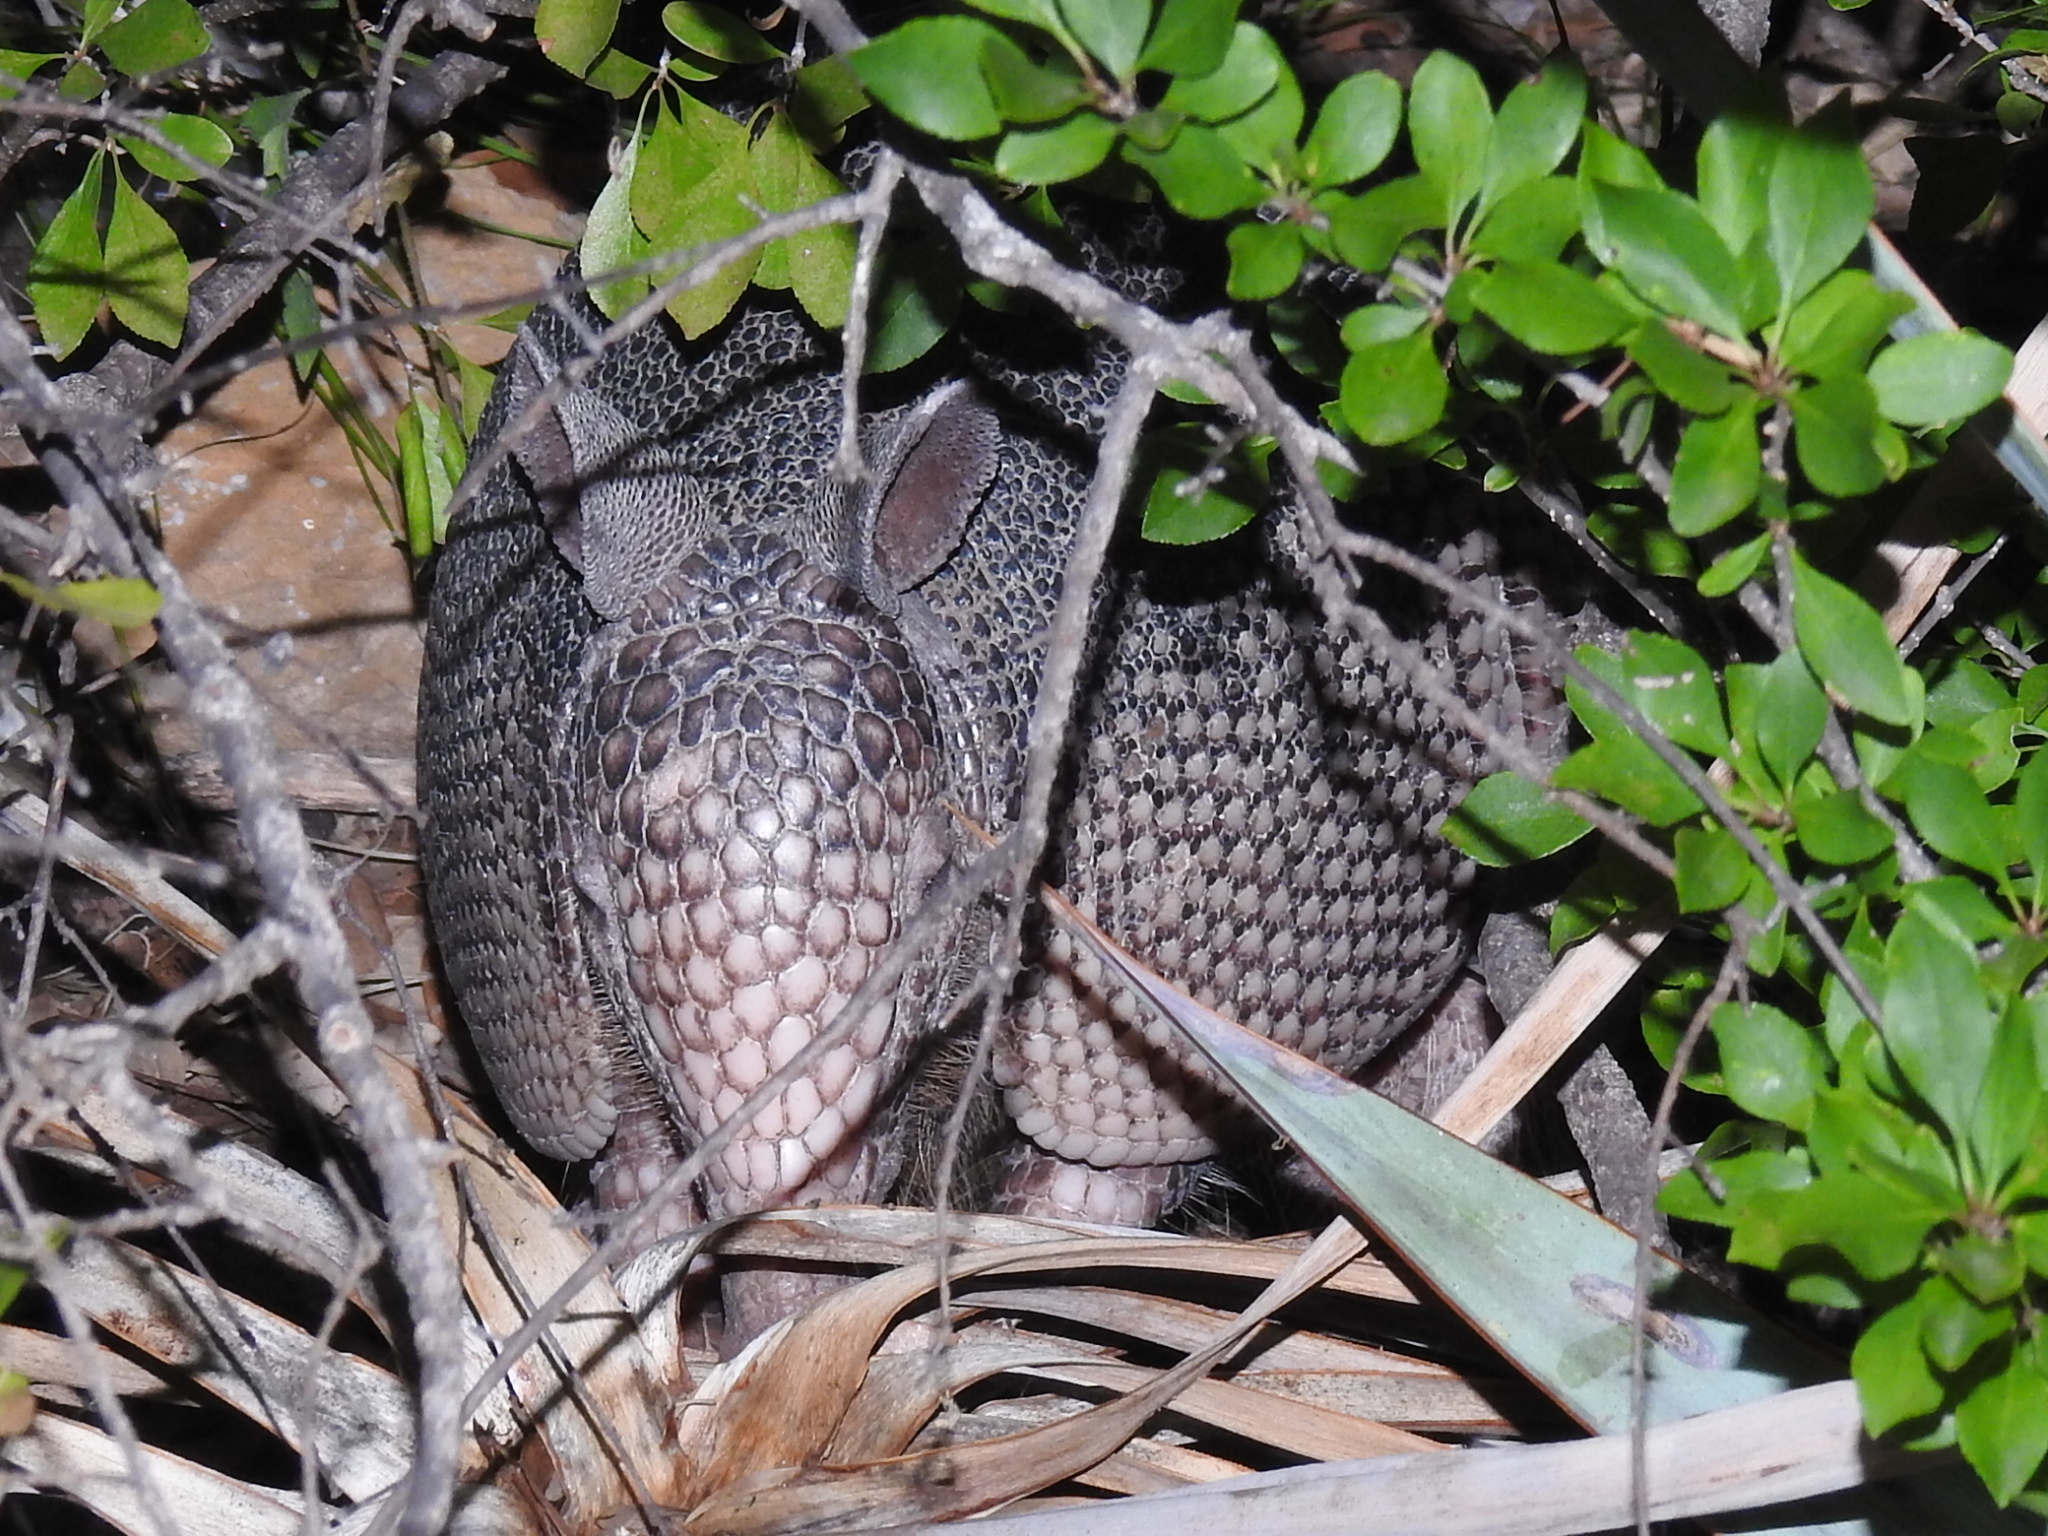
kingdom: Animalia
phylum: Chordata
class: Mammalia
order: Cingulata
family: Dasypodidae
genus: Dasypus
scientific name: Dasypus novemcinctus
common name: Nine-banded armadillo
